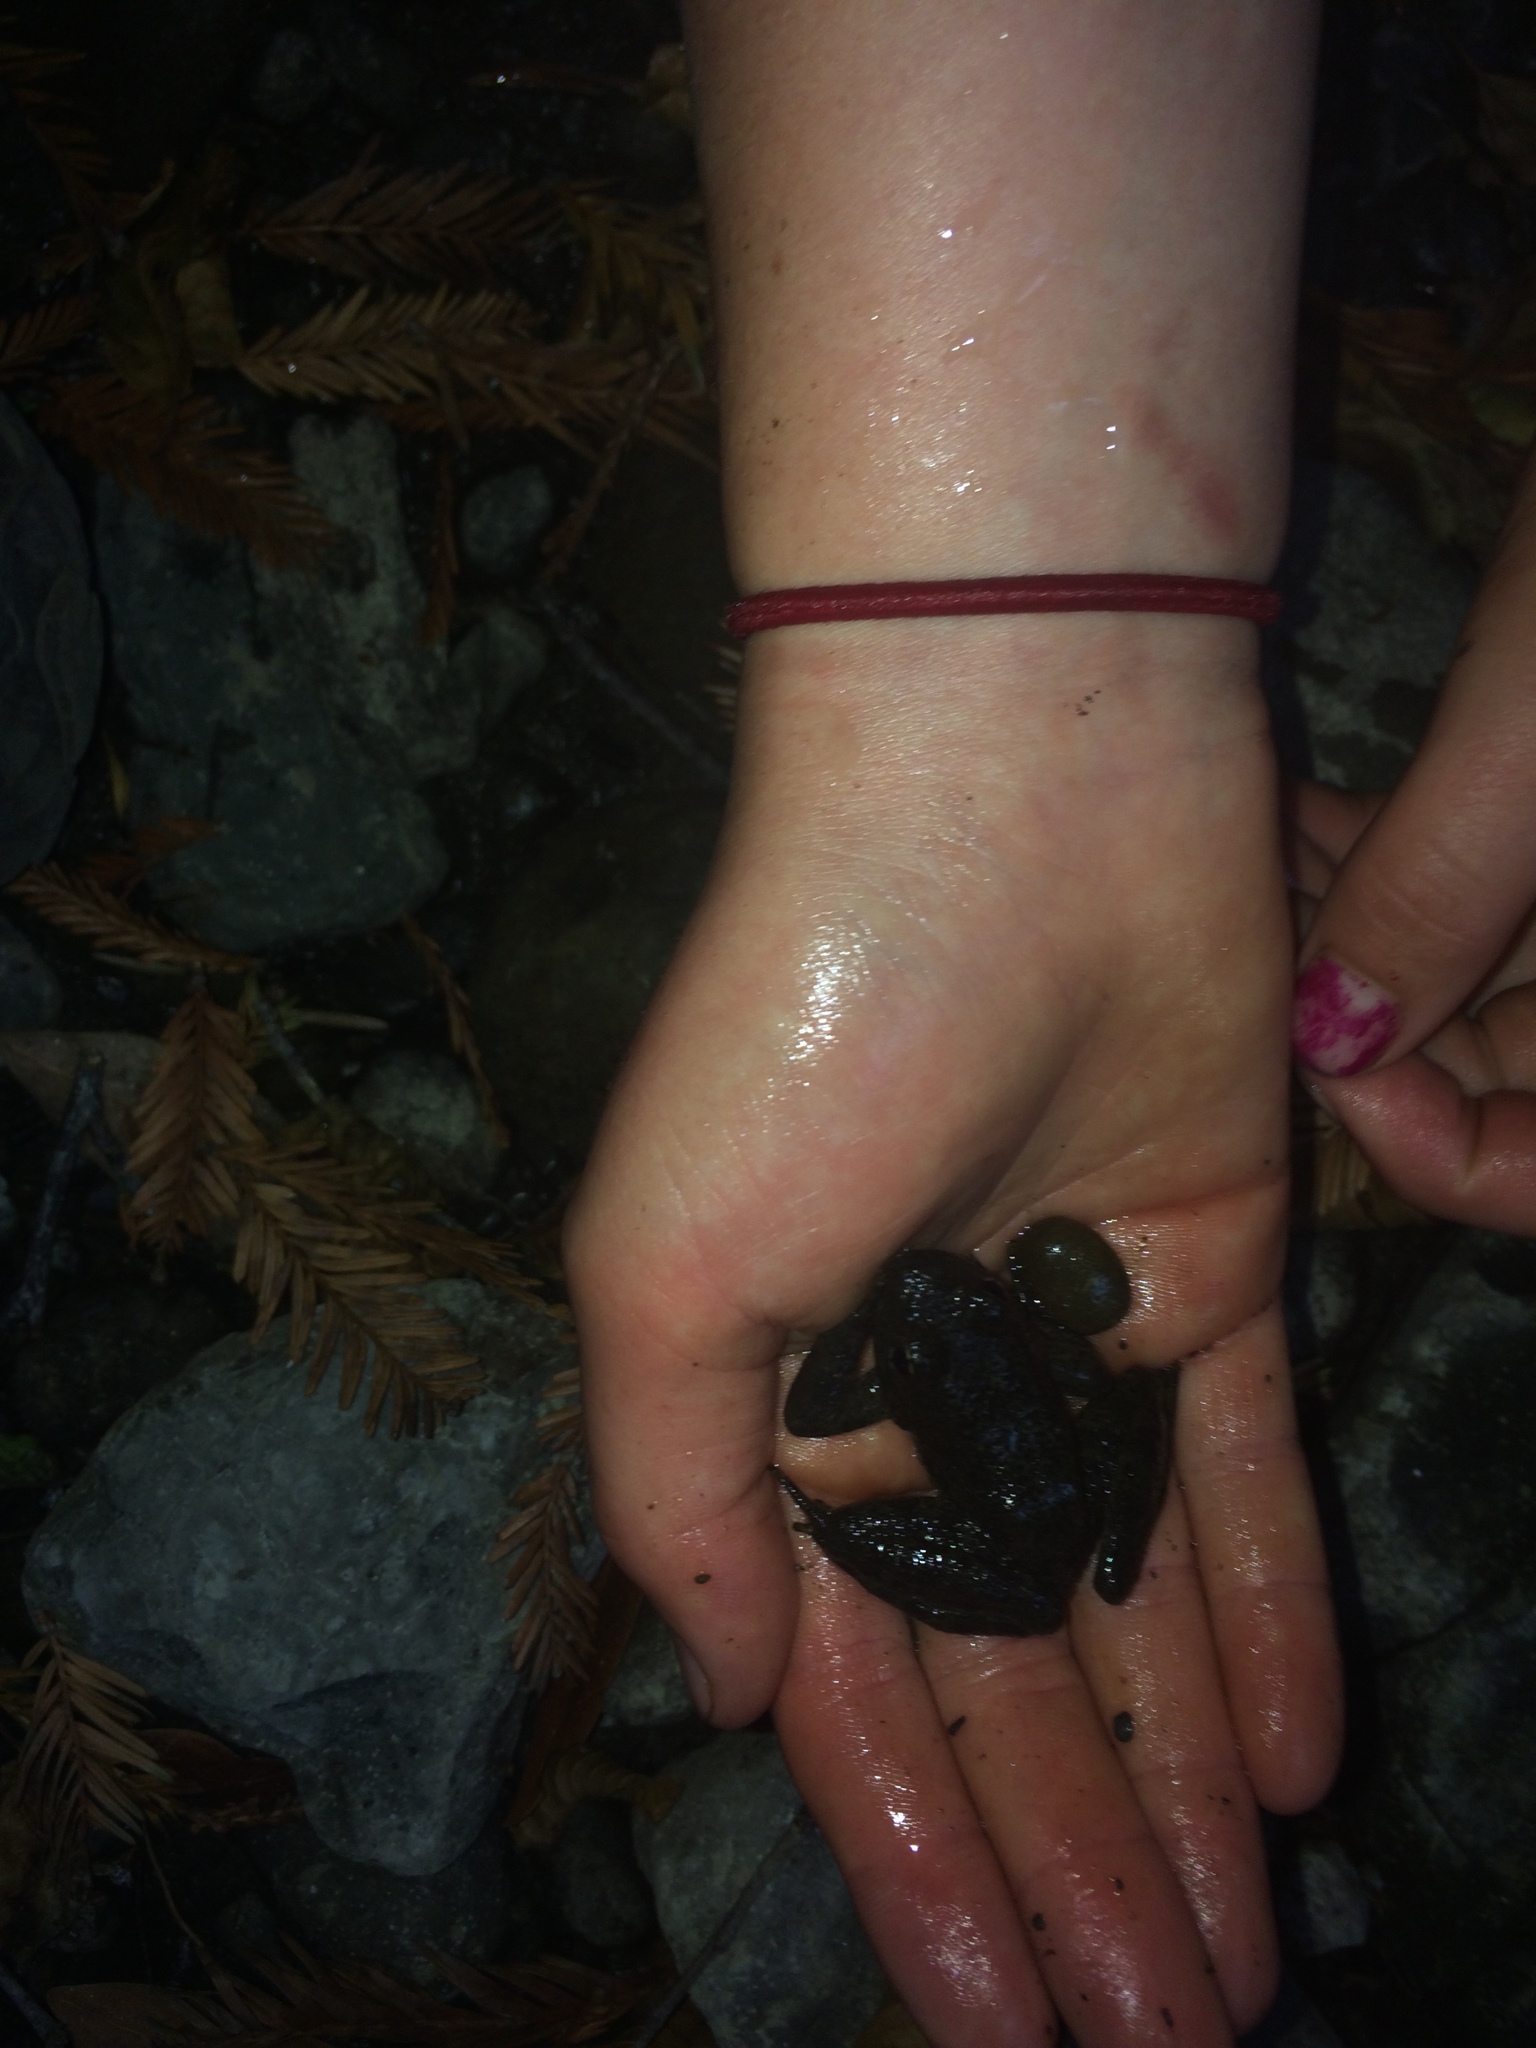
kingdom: Animalia
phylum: Chordata
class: Amphibia
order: Anura
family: Ranidae
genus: Rana
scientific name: Rana boylii
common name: Foothill yellow-legged frog
